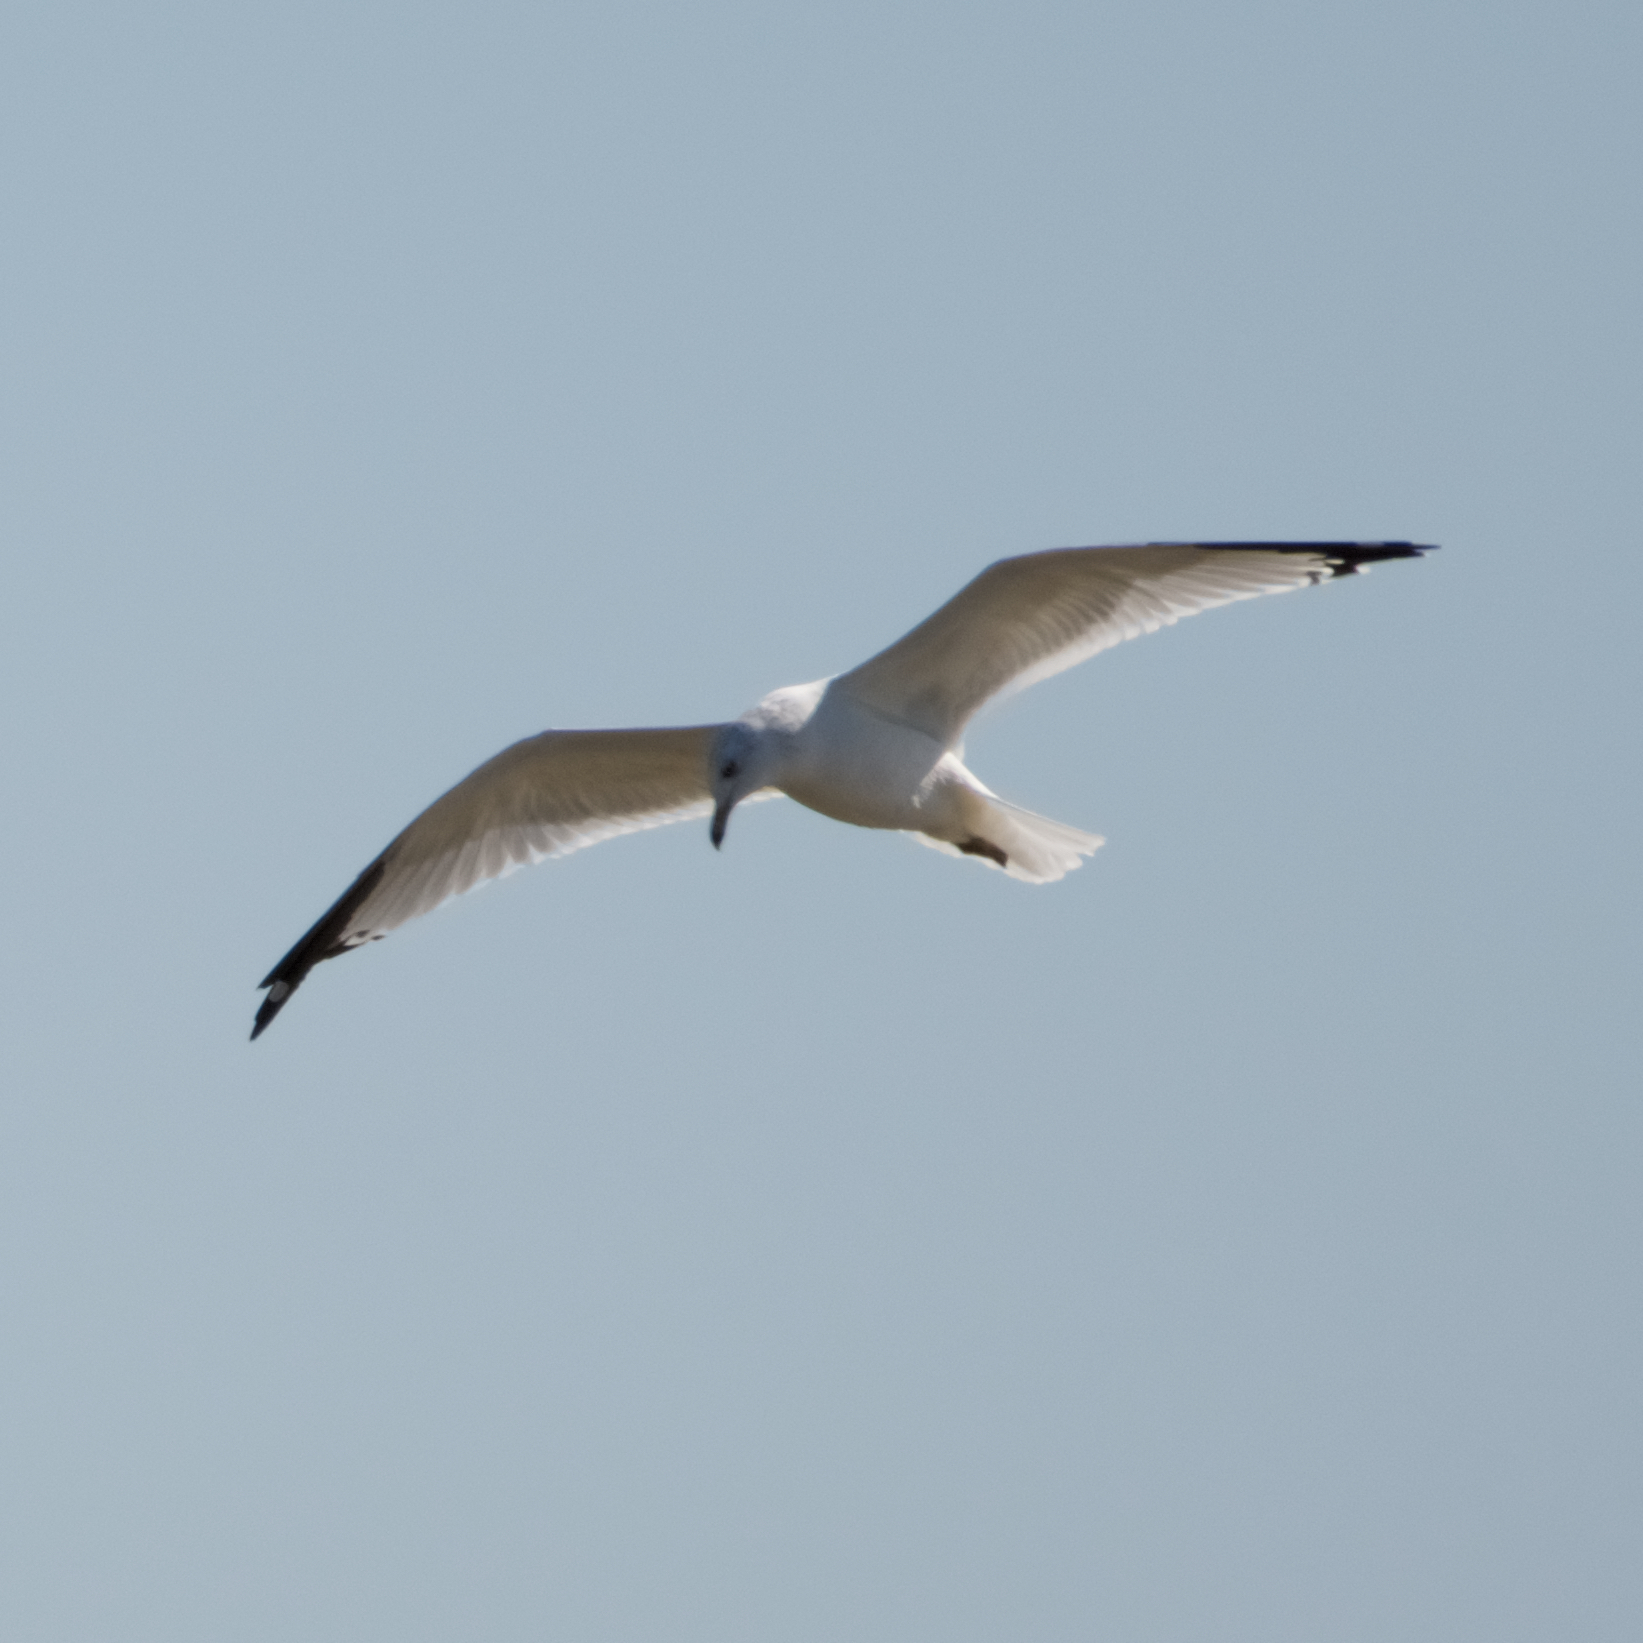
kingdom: Animalia
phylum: Chordata
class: Aves
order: Charadriiformes
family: Laridae
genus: Larus
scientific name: Larus delawarensis
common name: Ring-billed gull
